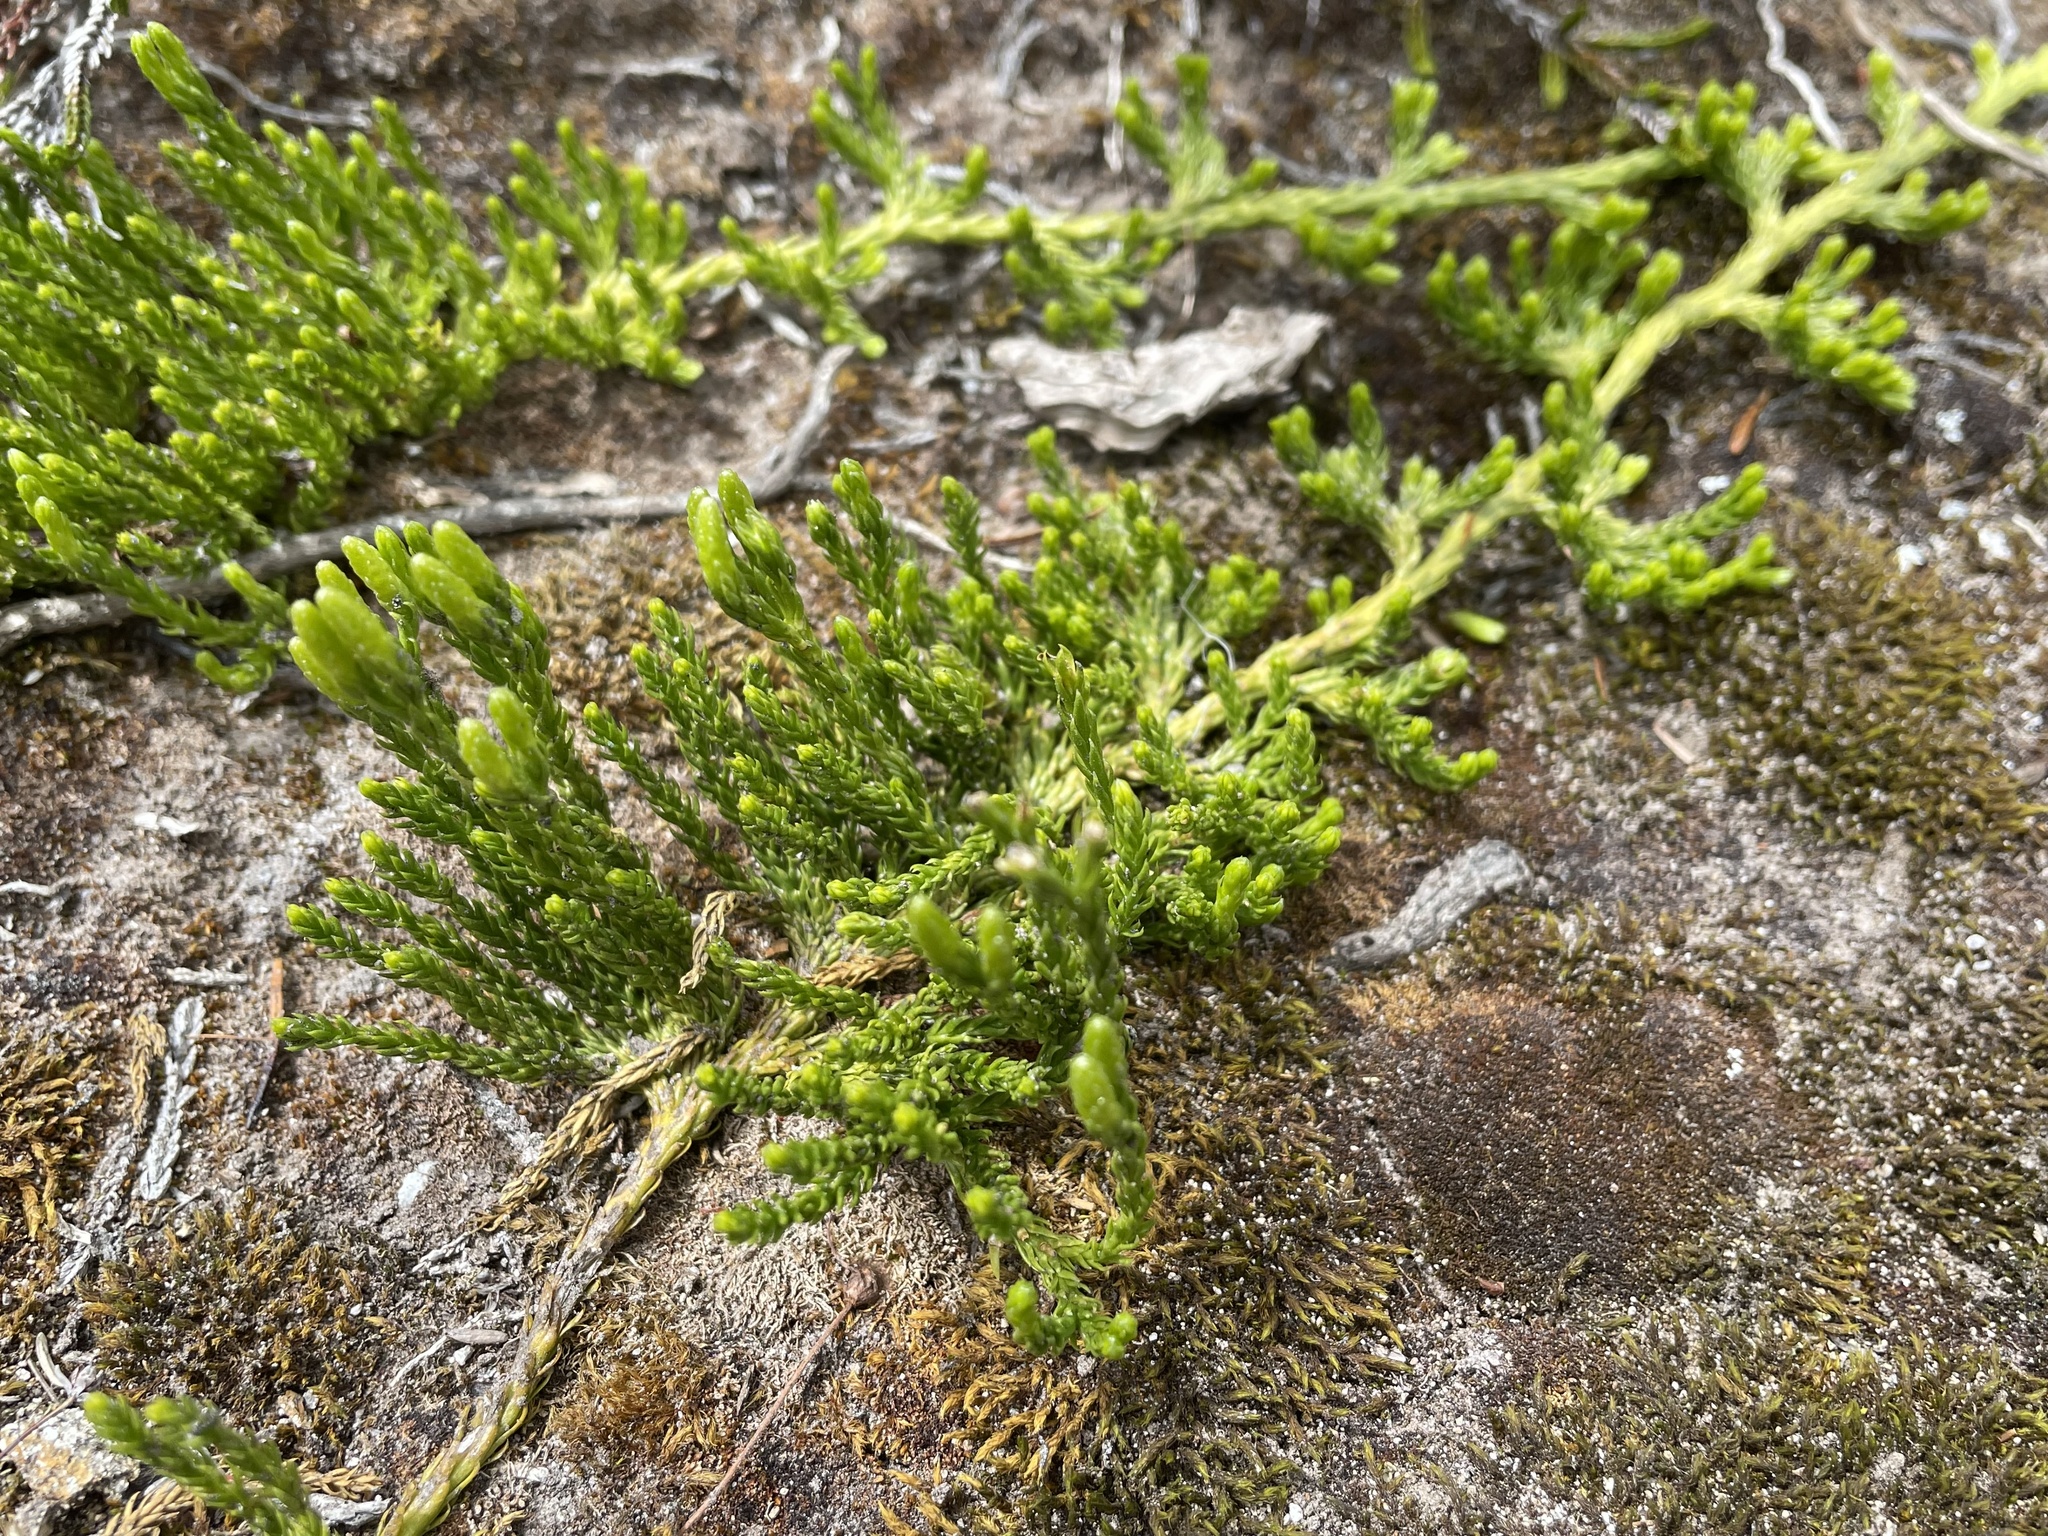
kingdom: Plantae
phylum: Tracheophyta
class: Lycopodiopsida
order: Lycopodiales
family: Lycopodiaceae
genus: Diphasiastrum
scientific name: Diphasiastrum sitchense
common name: Alaska clubmoss
